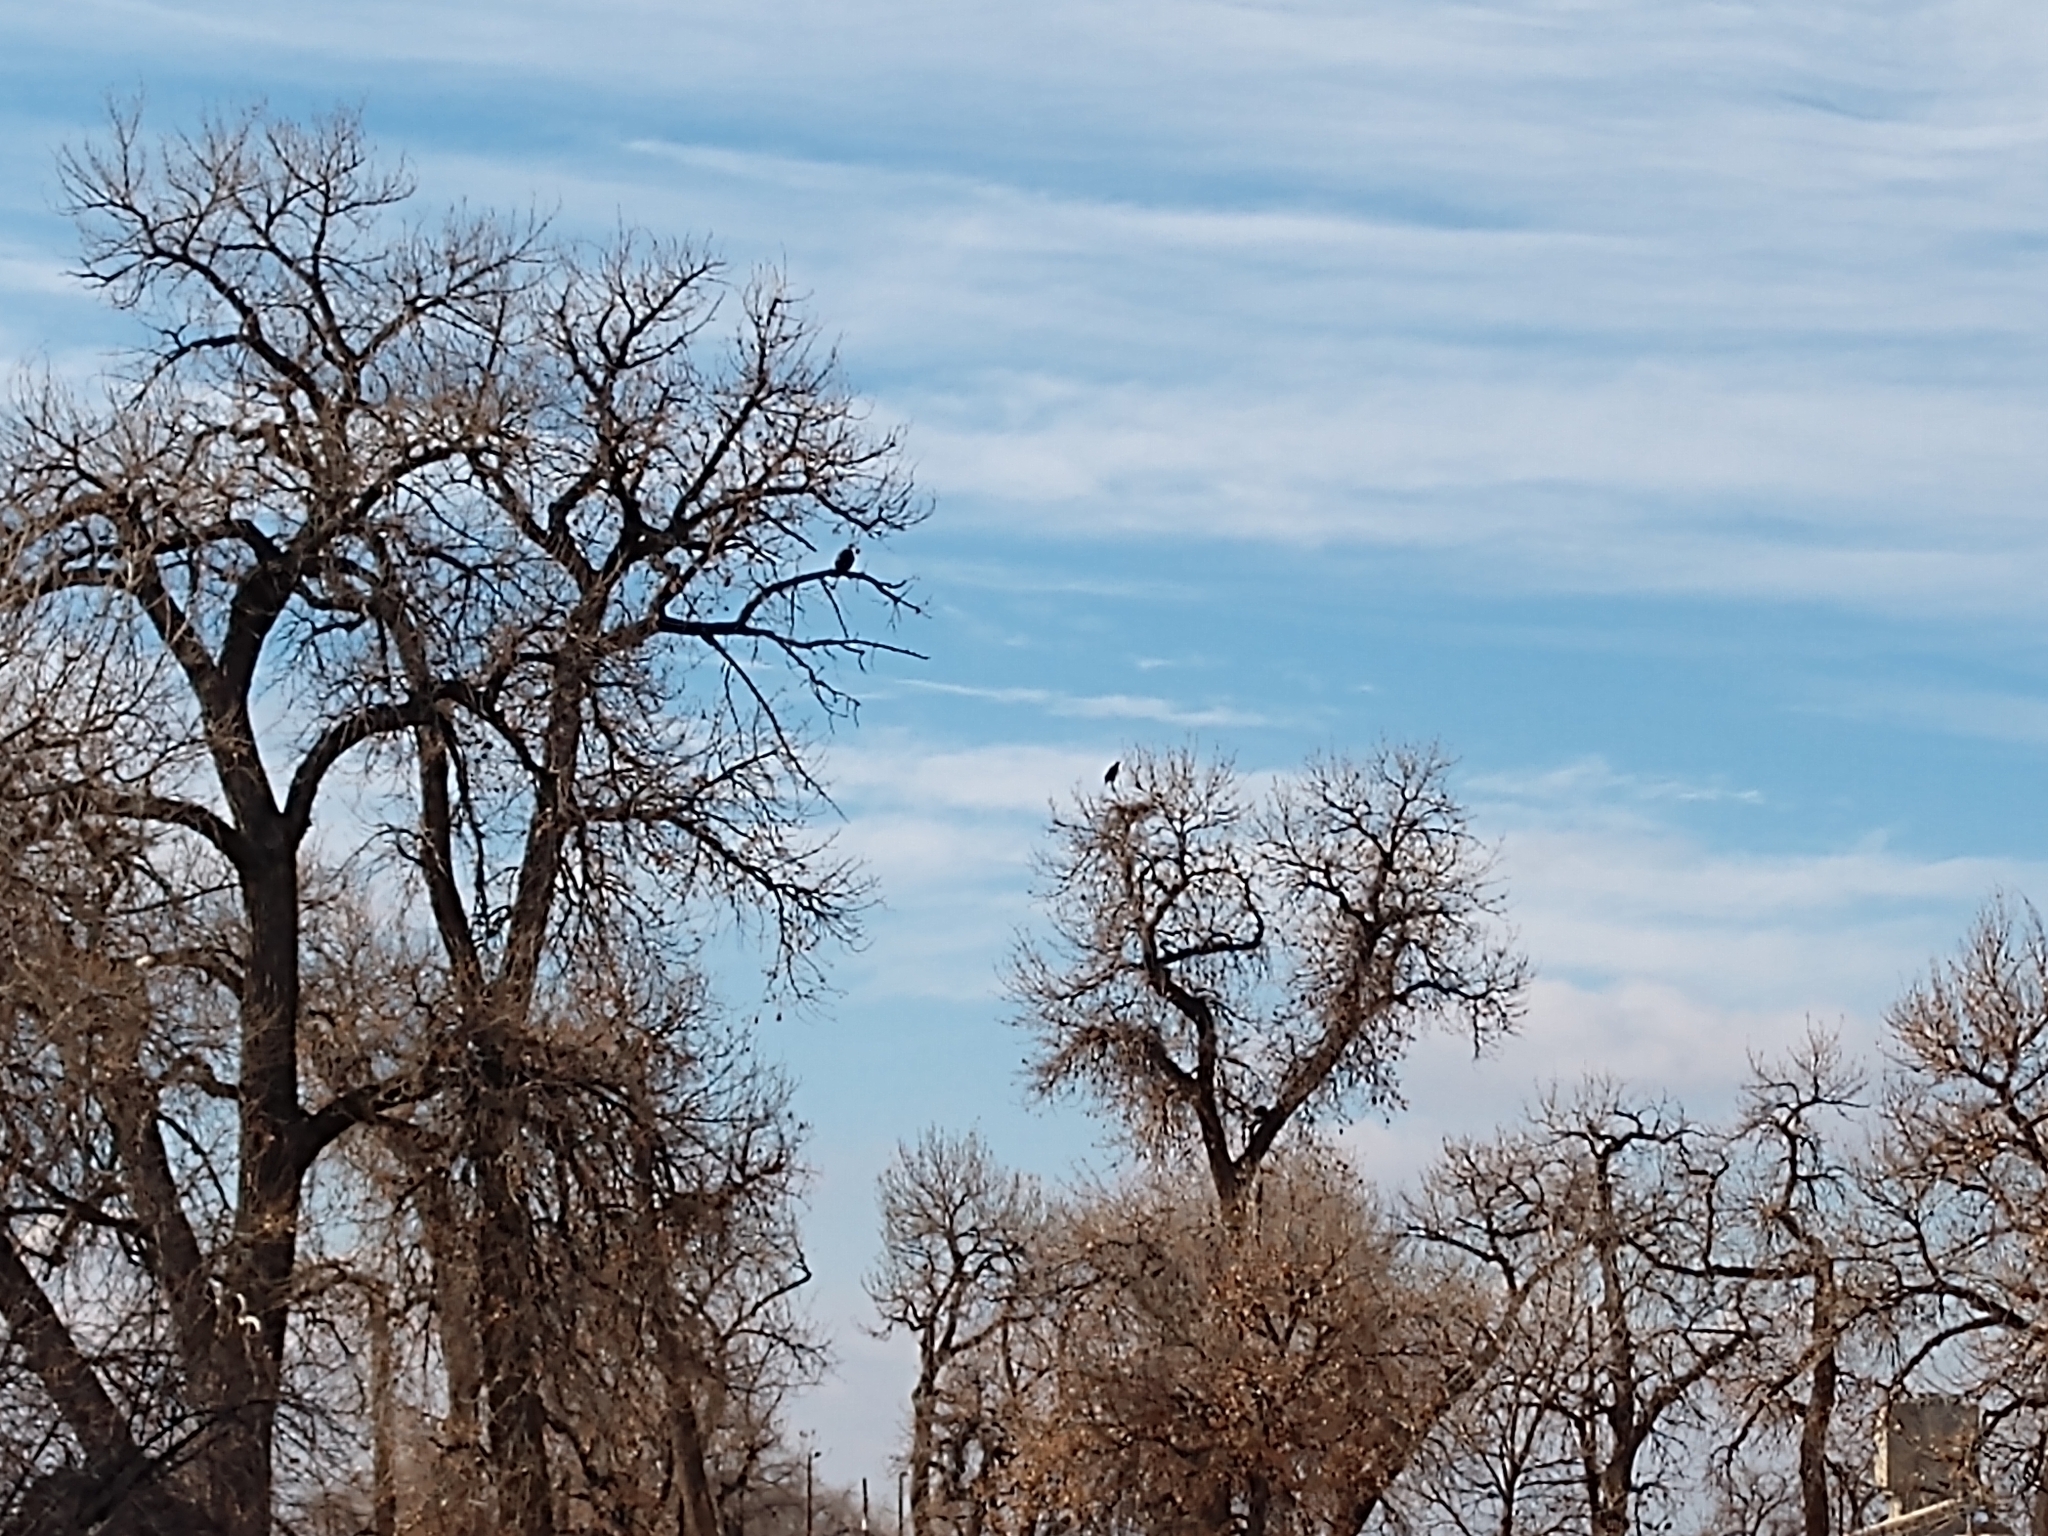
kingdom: Animalia
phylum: Chordata
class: Aves
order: Accipitriformes
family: Accipitridae
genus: Haliaeetus
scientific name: Haliaeetus leucocephalus
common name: Bald eagle
